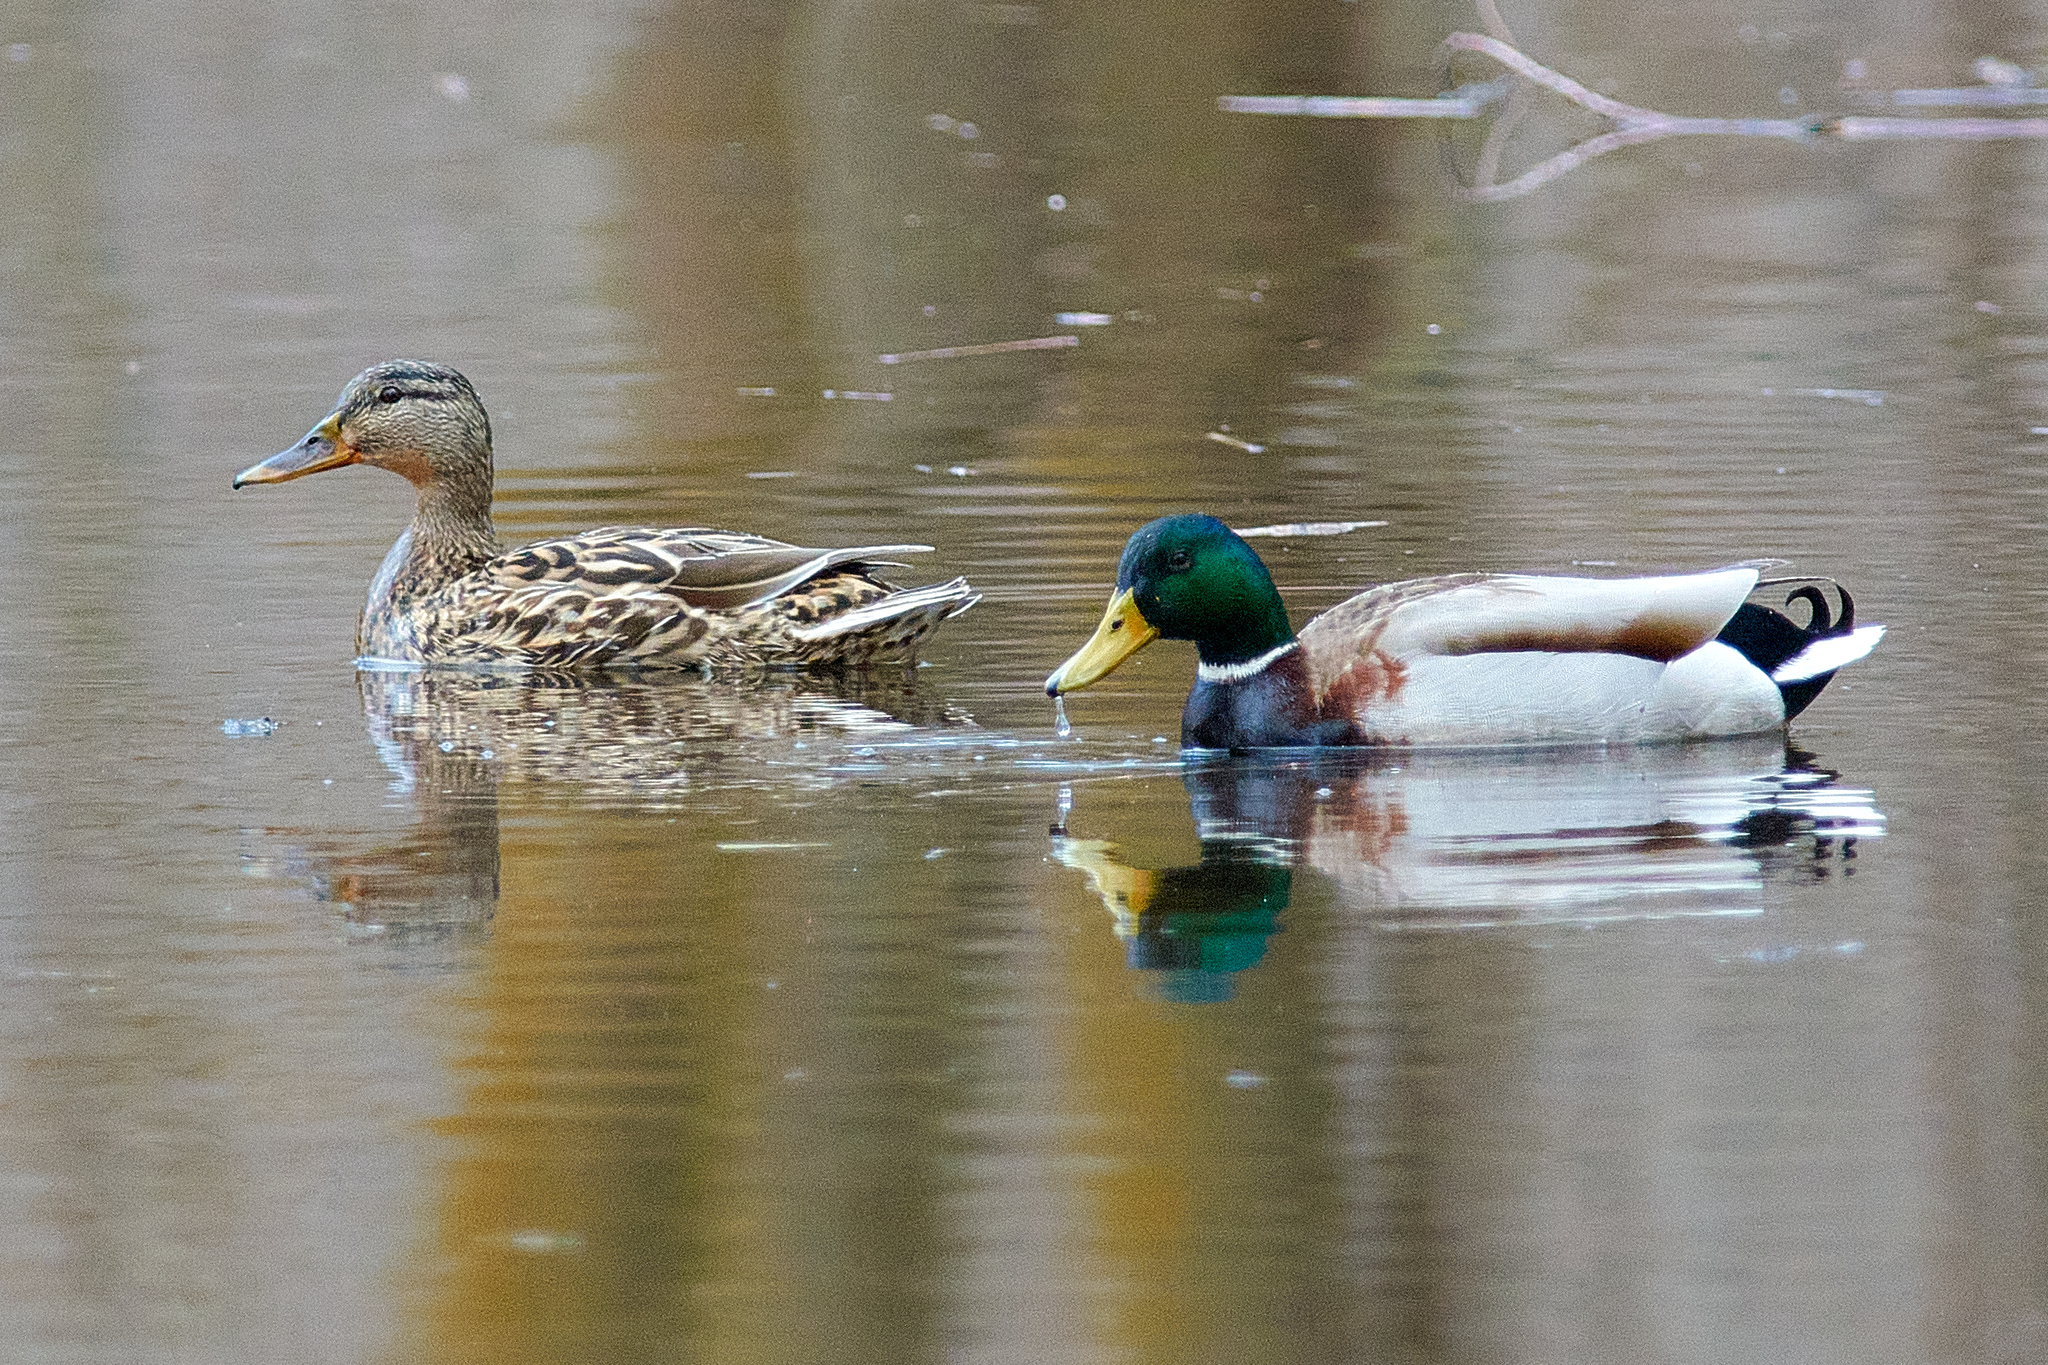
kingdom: Animalia
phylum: Chordata
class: Aves
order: Anseriformes
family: Anatidae
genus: Anas
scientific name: Anas platyrhynchos
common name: Mallard
